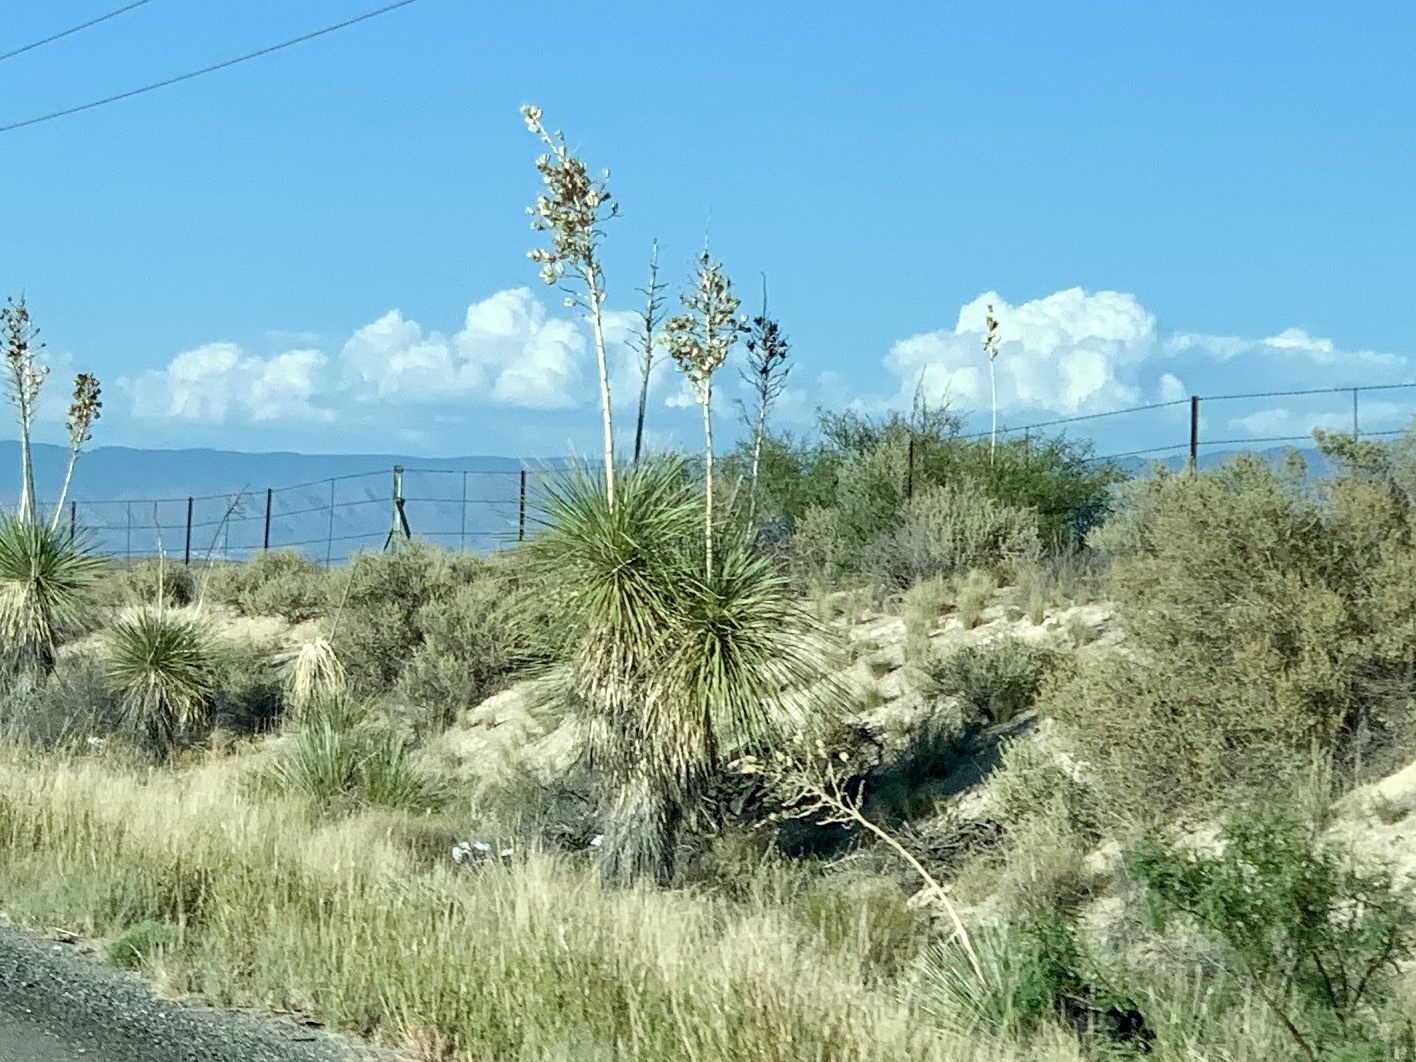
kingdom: Plantae
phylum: Tracheophyta
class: Liliopsida
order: Asparagales
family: Asparagaceae
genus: Yucca
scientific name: Yucca elata
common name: Palmella
